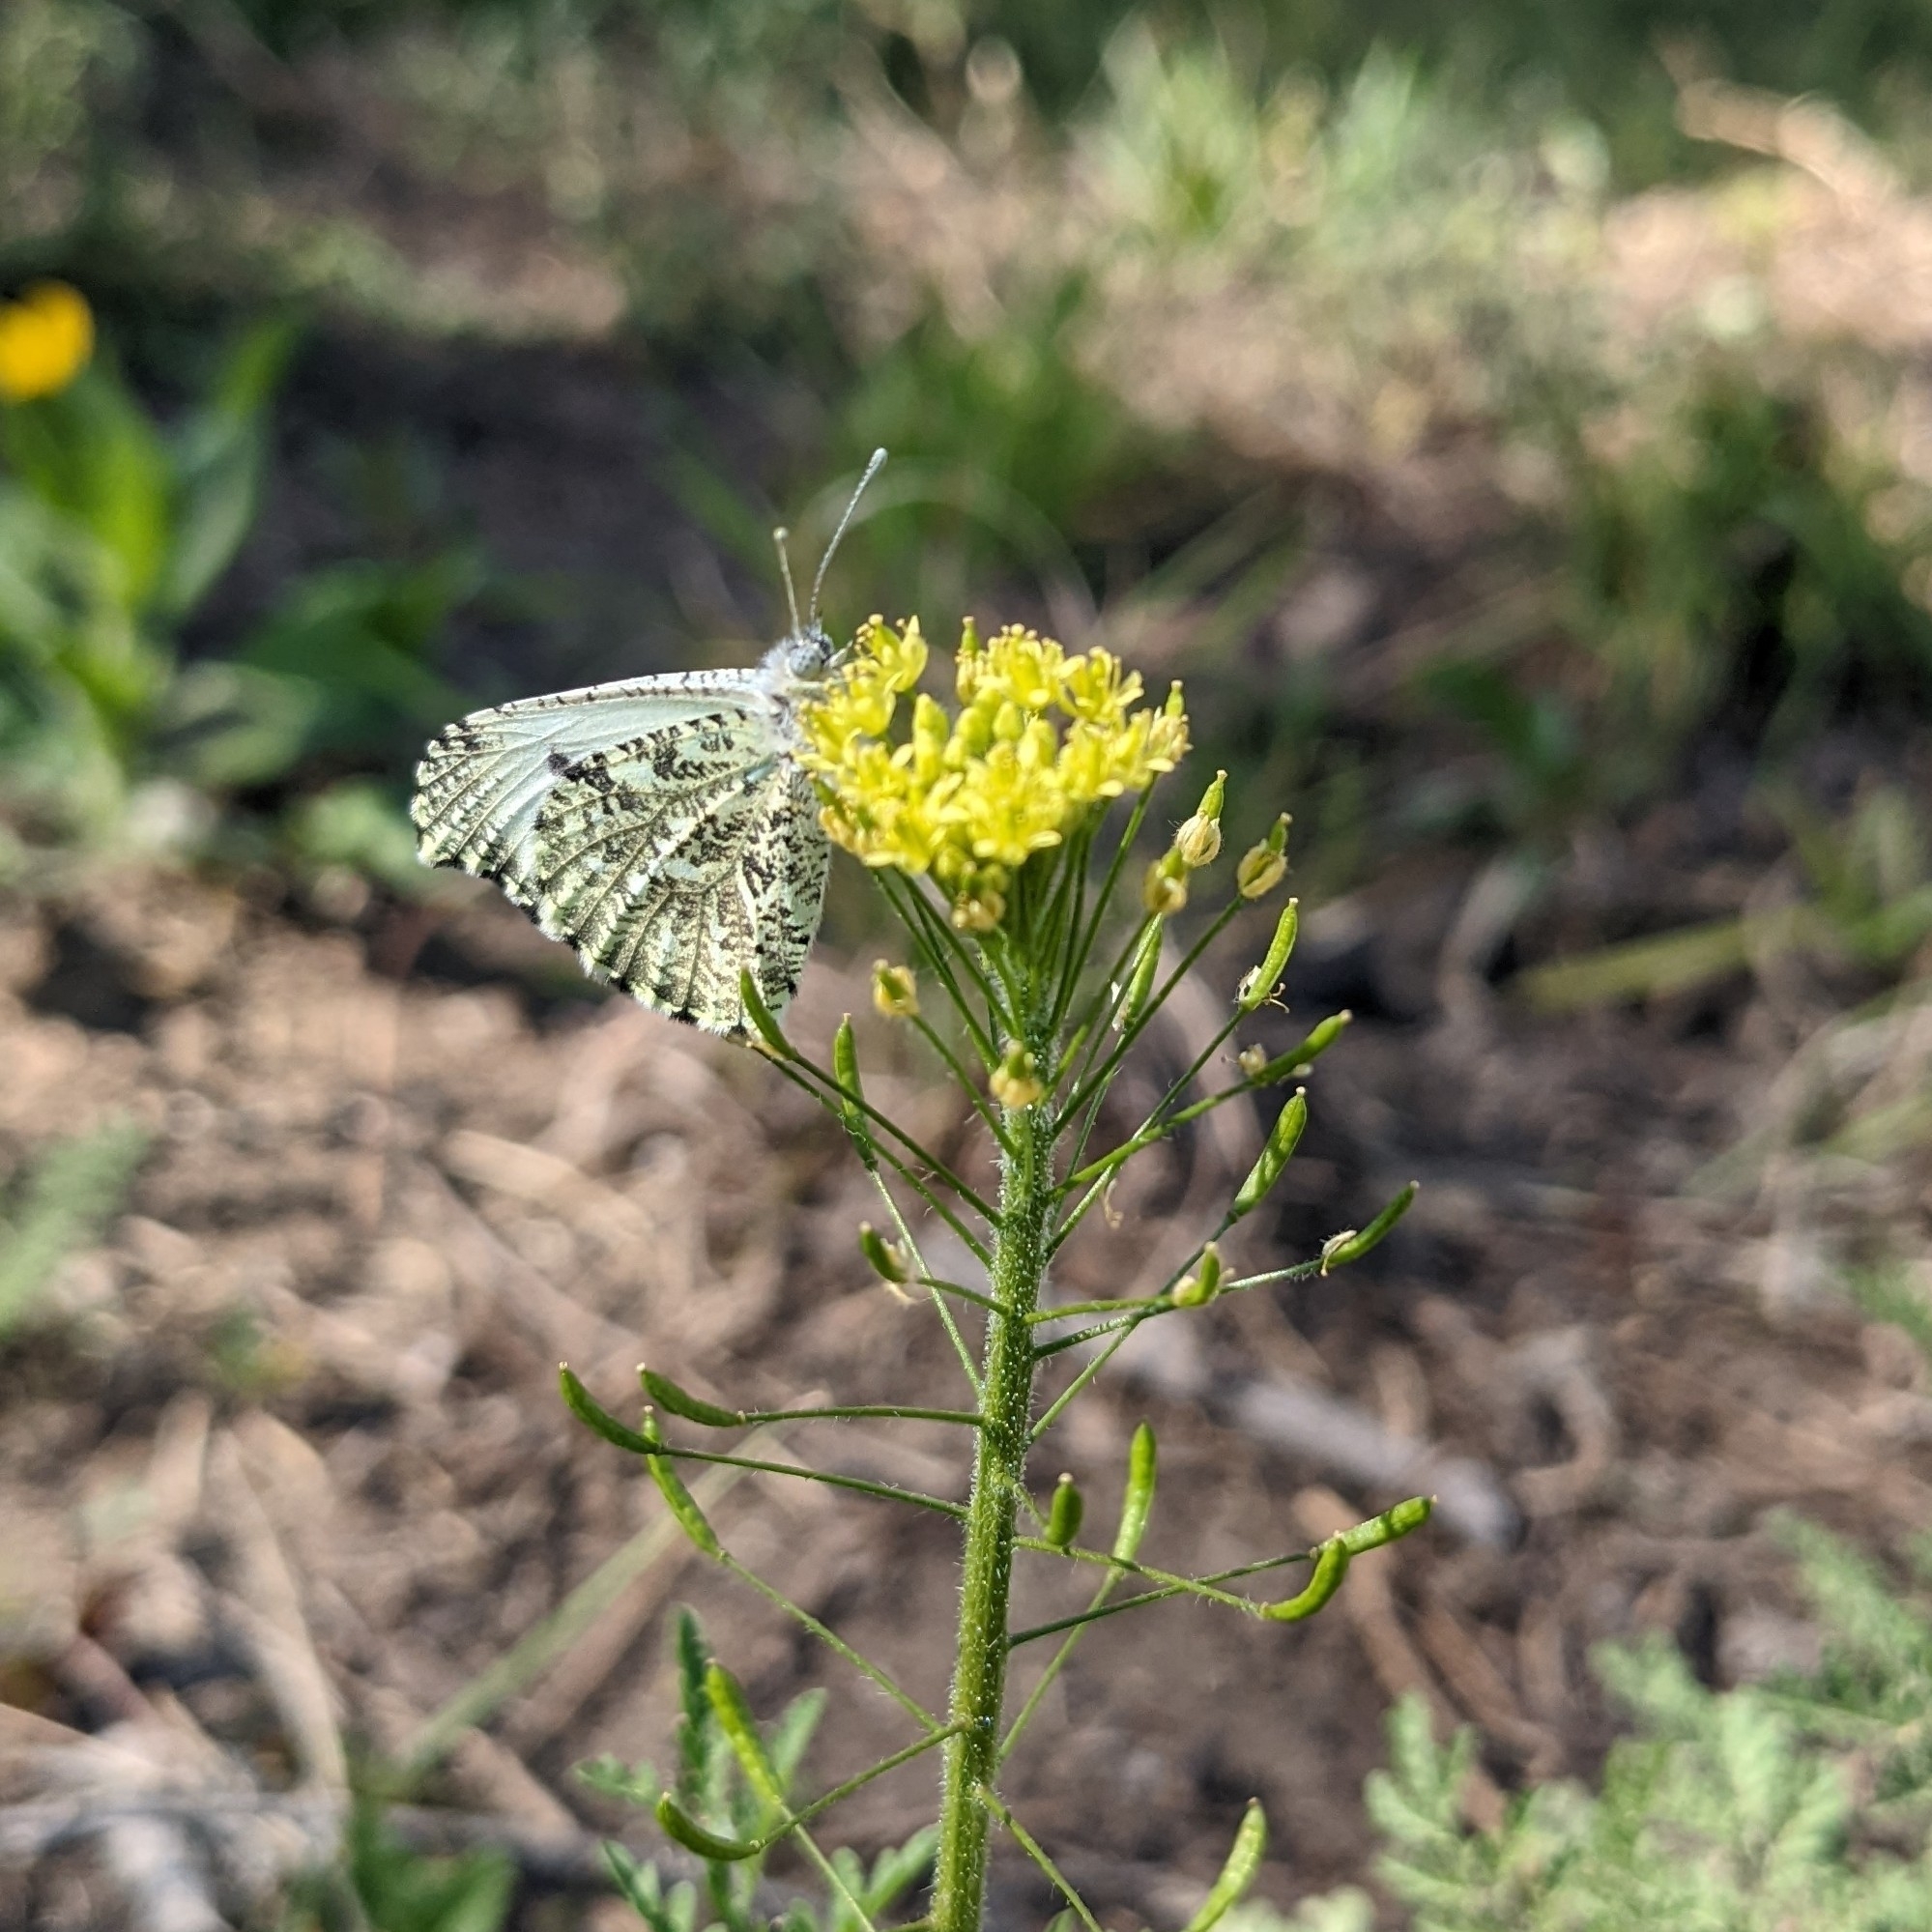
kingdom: Animalia
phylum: Arthropoda
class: Insecta
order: Lepidoptera
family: Pieridae
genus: Anthocharis
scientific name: Anthocharis midea
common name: Falcate orangetip
